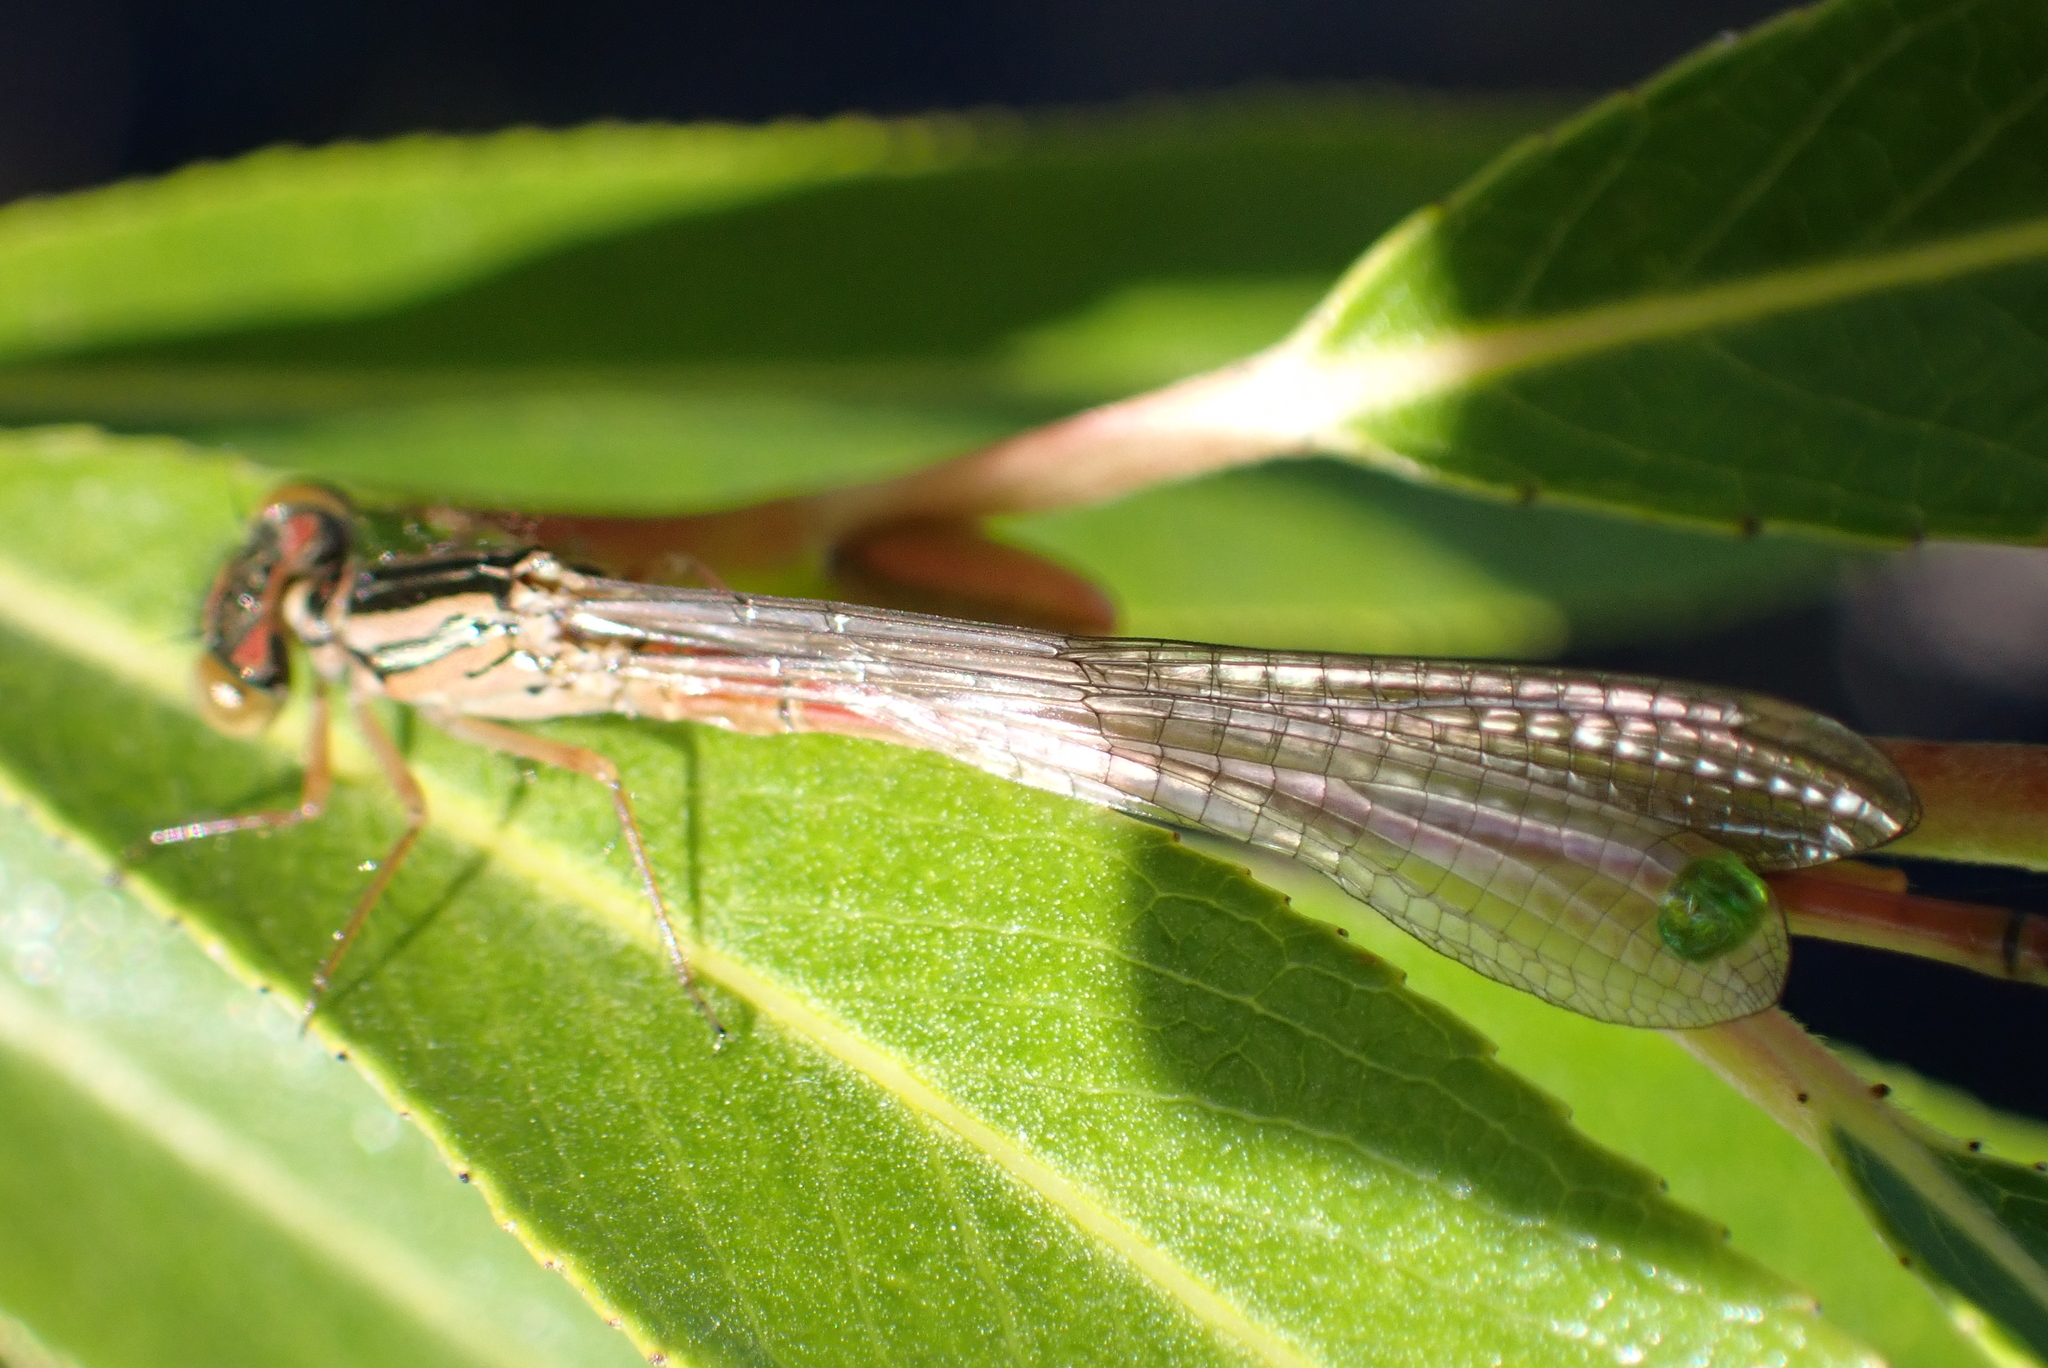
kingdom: Animalia
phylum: Arthropoda
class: Insecta
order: Odonata
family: Coenagrionidae
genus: Xanthocnemis
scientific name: Xanthocnemis zealandica
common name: Common redcoat damselfly
